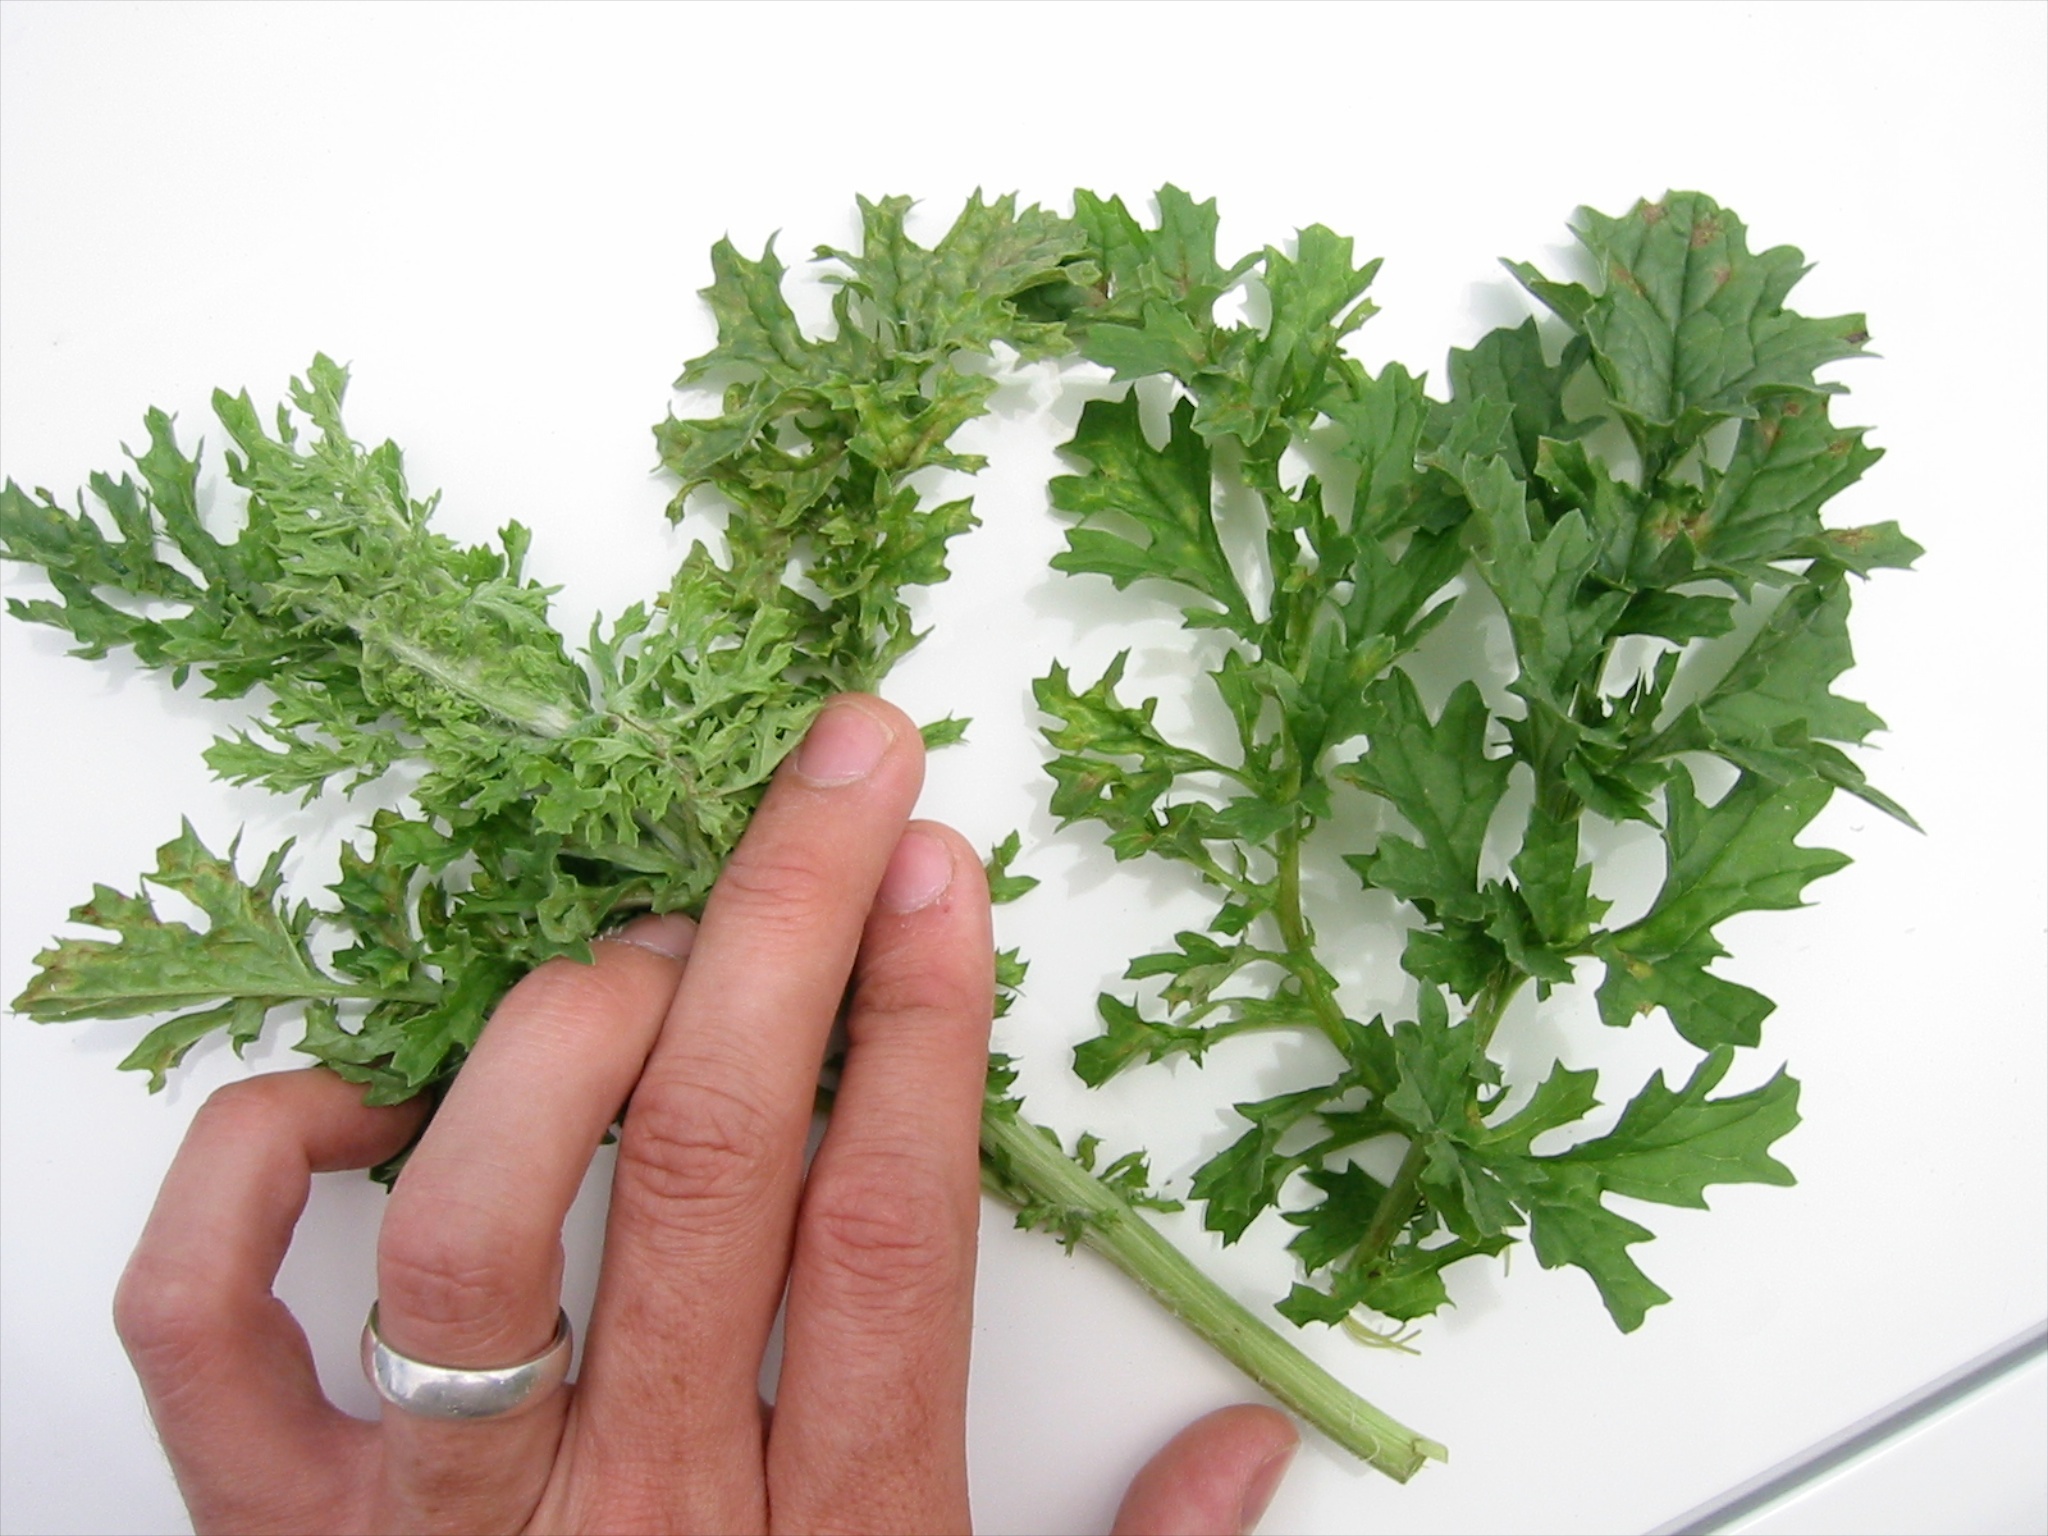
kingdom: Plantae
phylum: Tracheophyta
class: Magnoliopsida
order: Asterales
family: Asteraceae
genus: Jacobaea
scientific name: Jacobaea vulgaris
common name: Stinking willie
